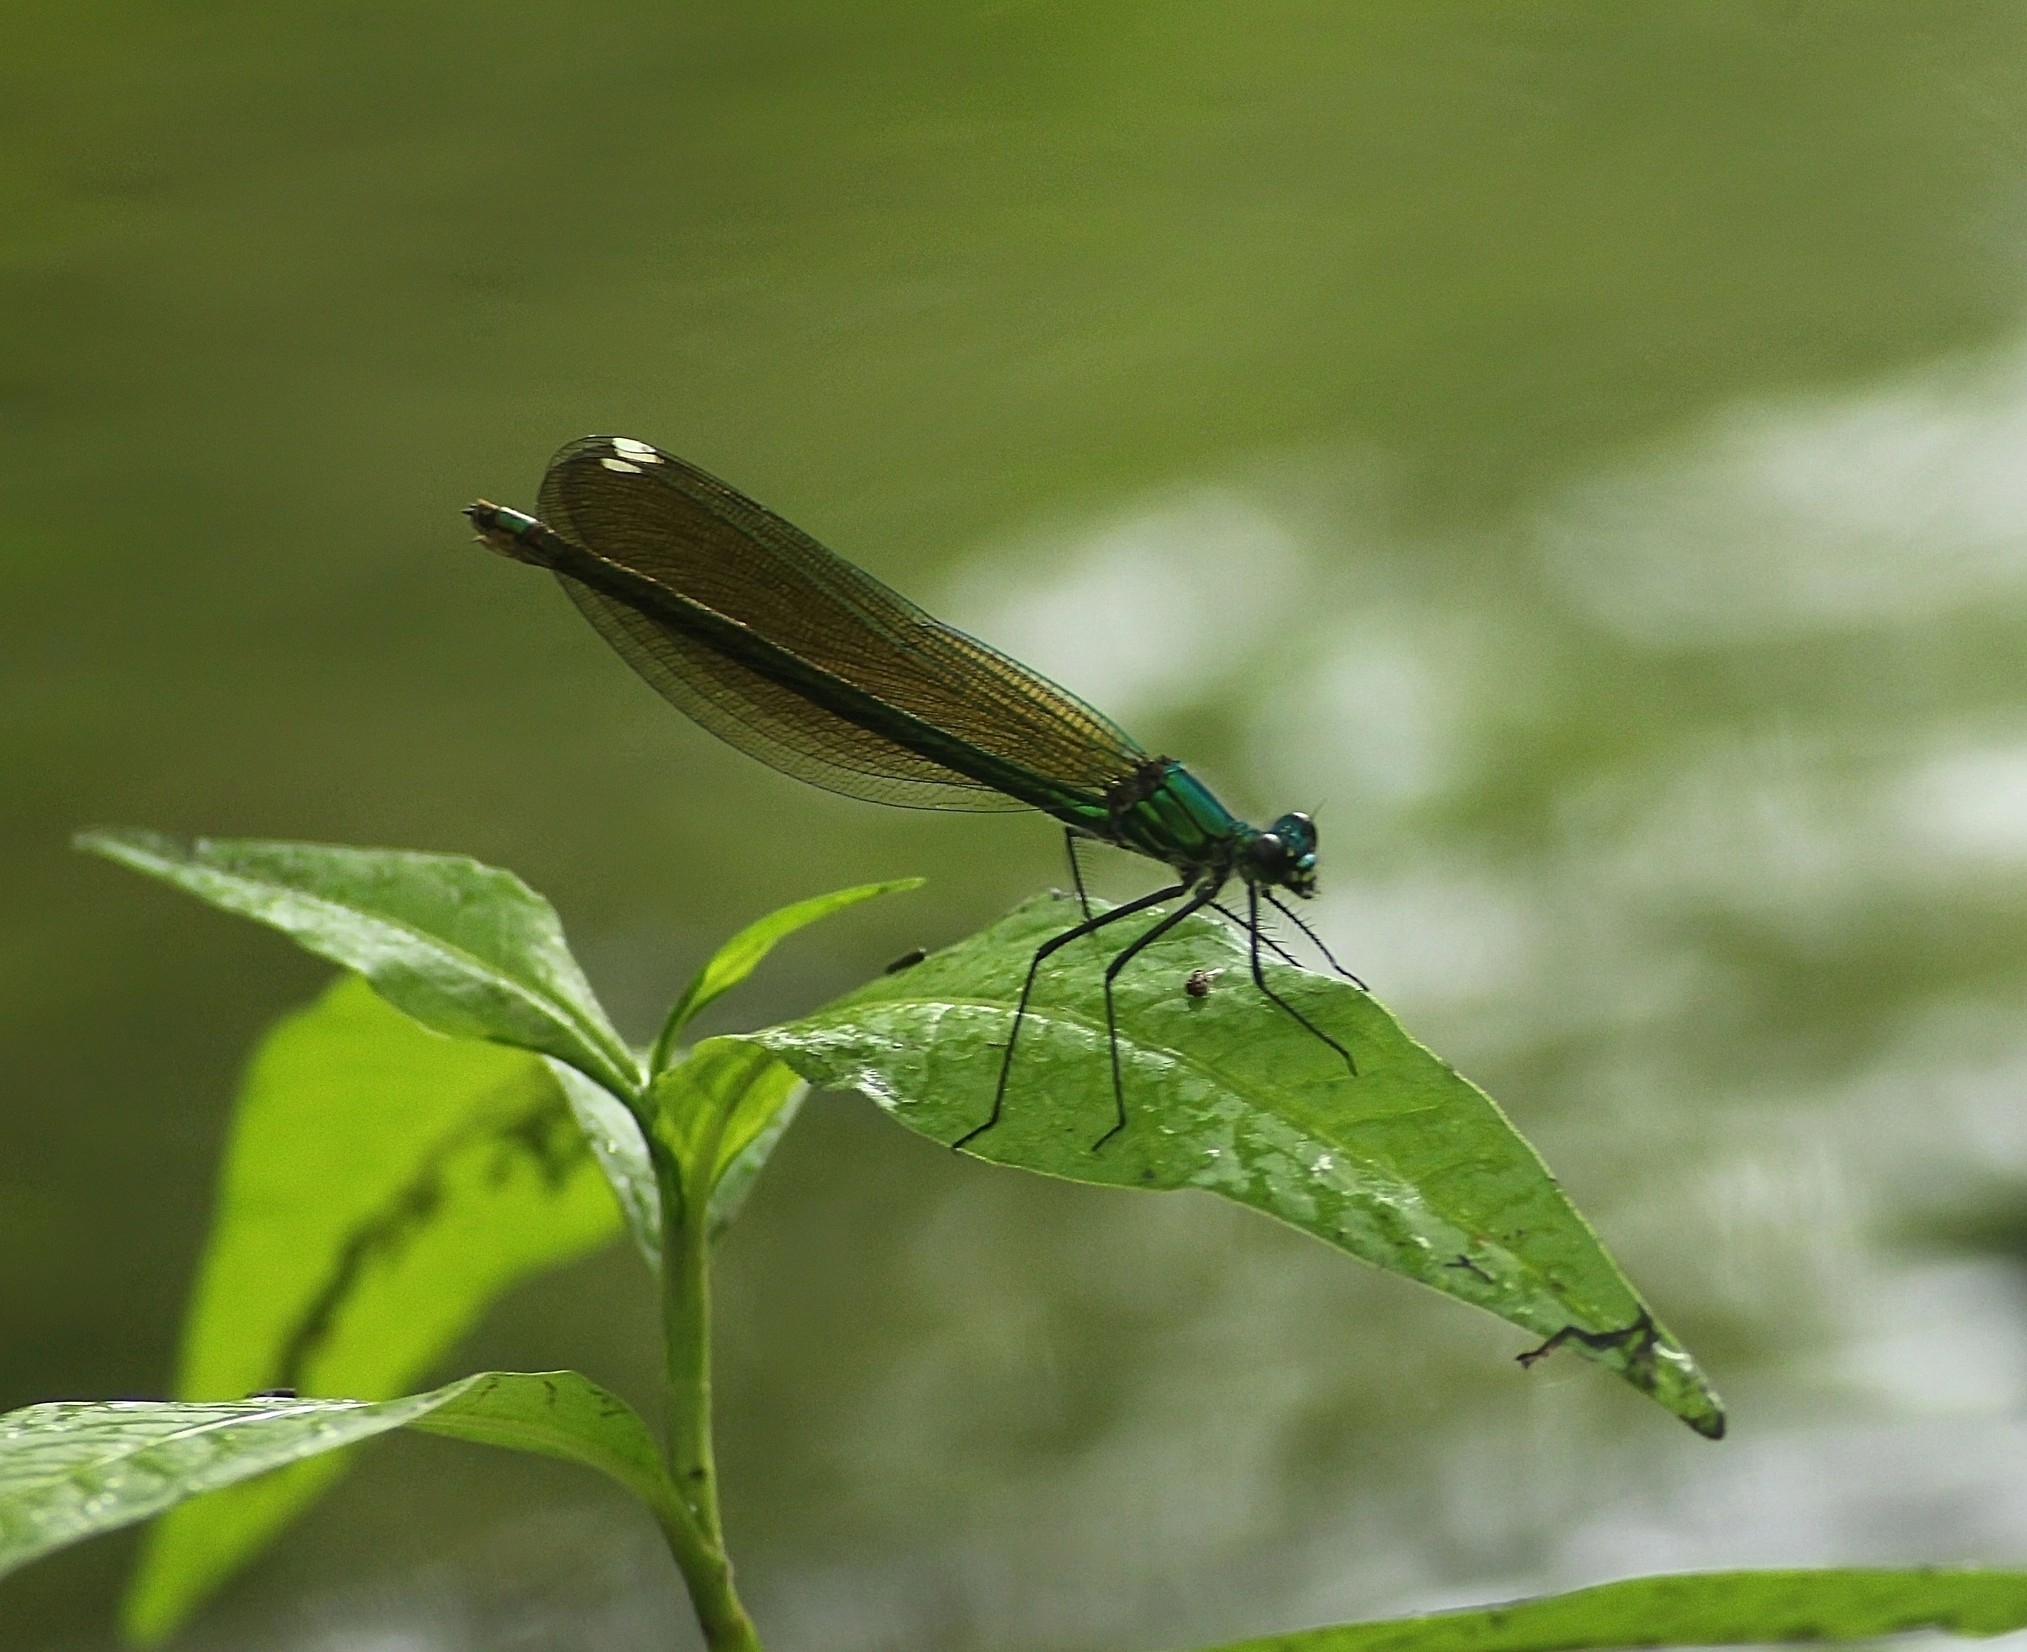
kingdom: Animalia
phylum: Arthropoda
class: Insecta
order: Odonata
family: Calopterygidae
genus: Calopteryx
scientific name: Calopteryx splendens
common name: Banded demoiselle
